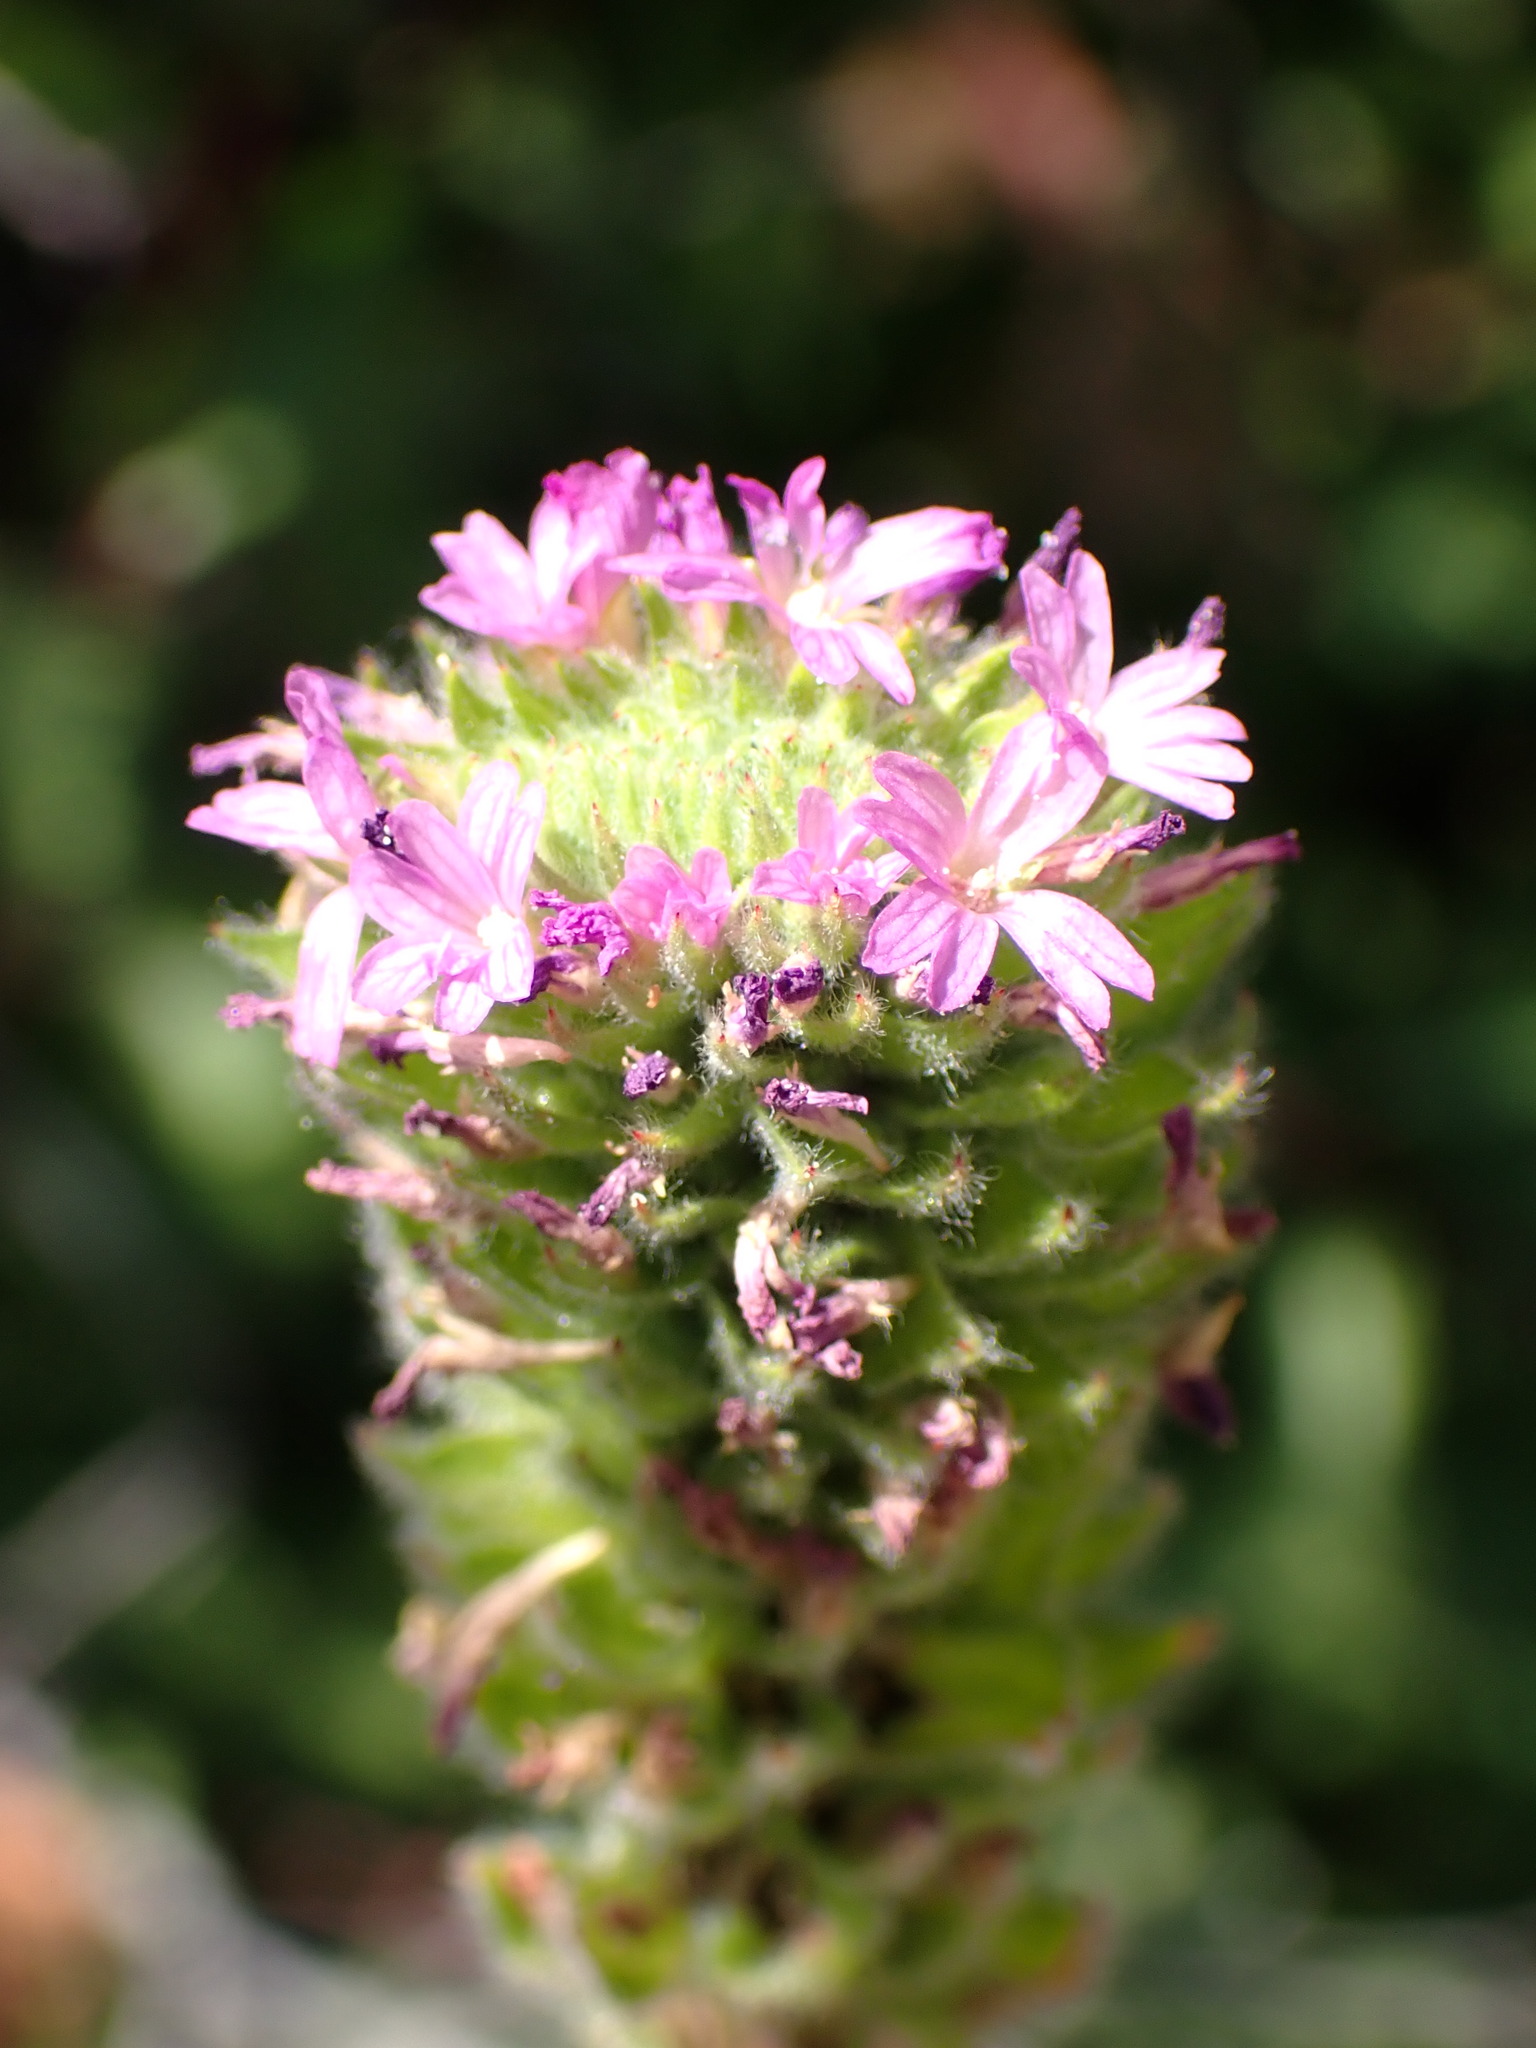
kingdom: Plantae
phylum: Tracheophyta
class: Magnoliopsida
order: Myrtales
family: Onagraceae
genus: Epilobium
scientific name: Epilobium densiflorum
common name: Dense spike-primrose
